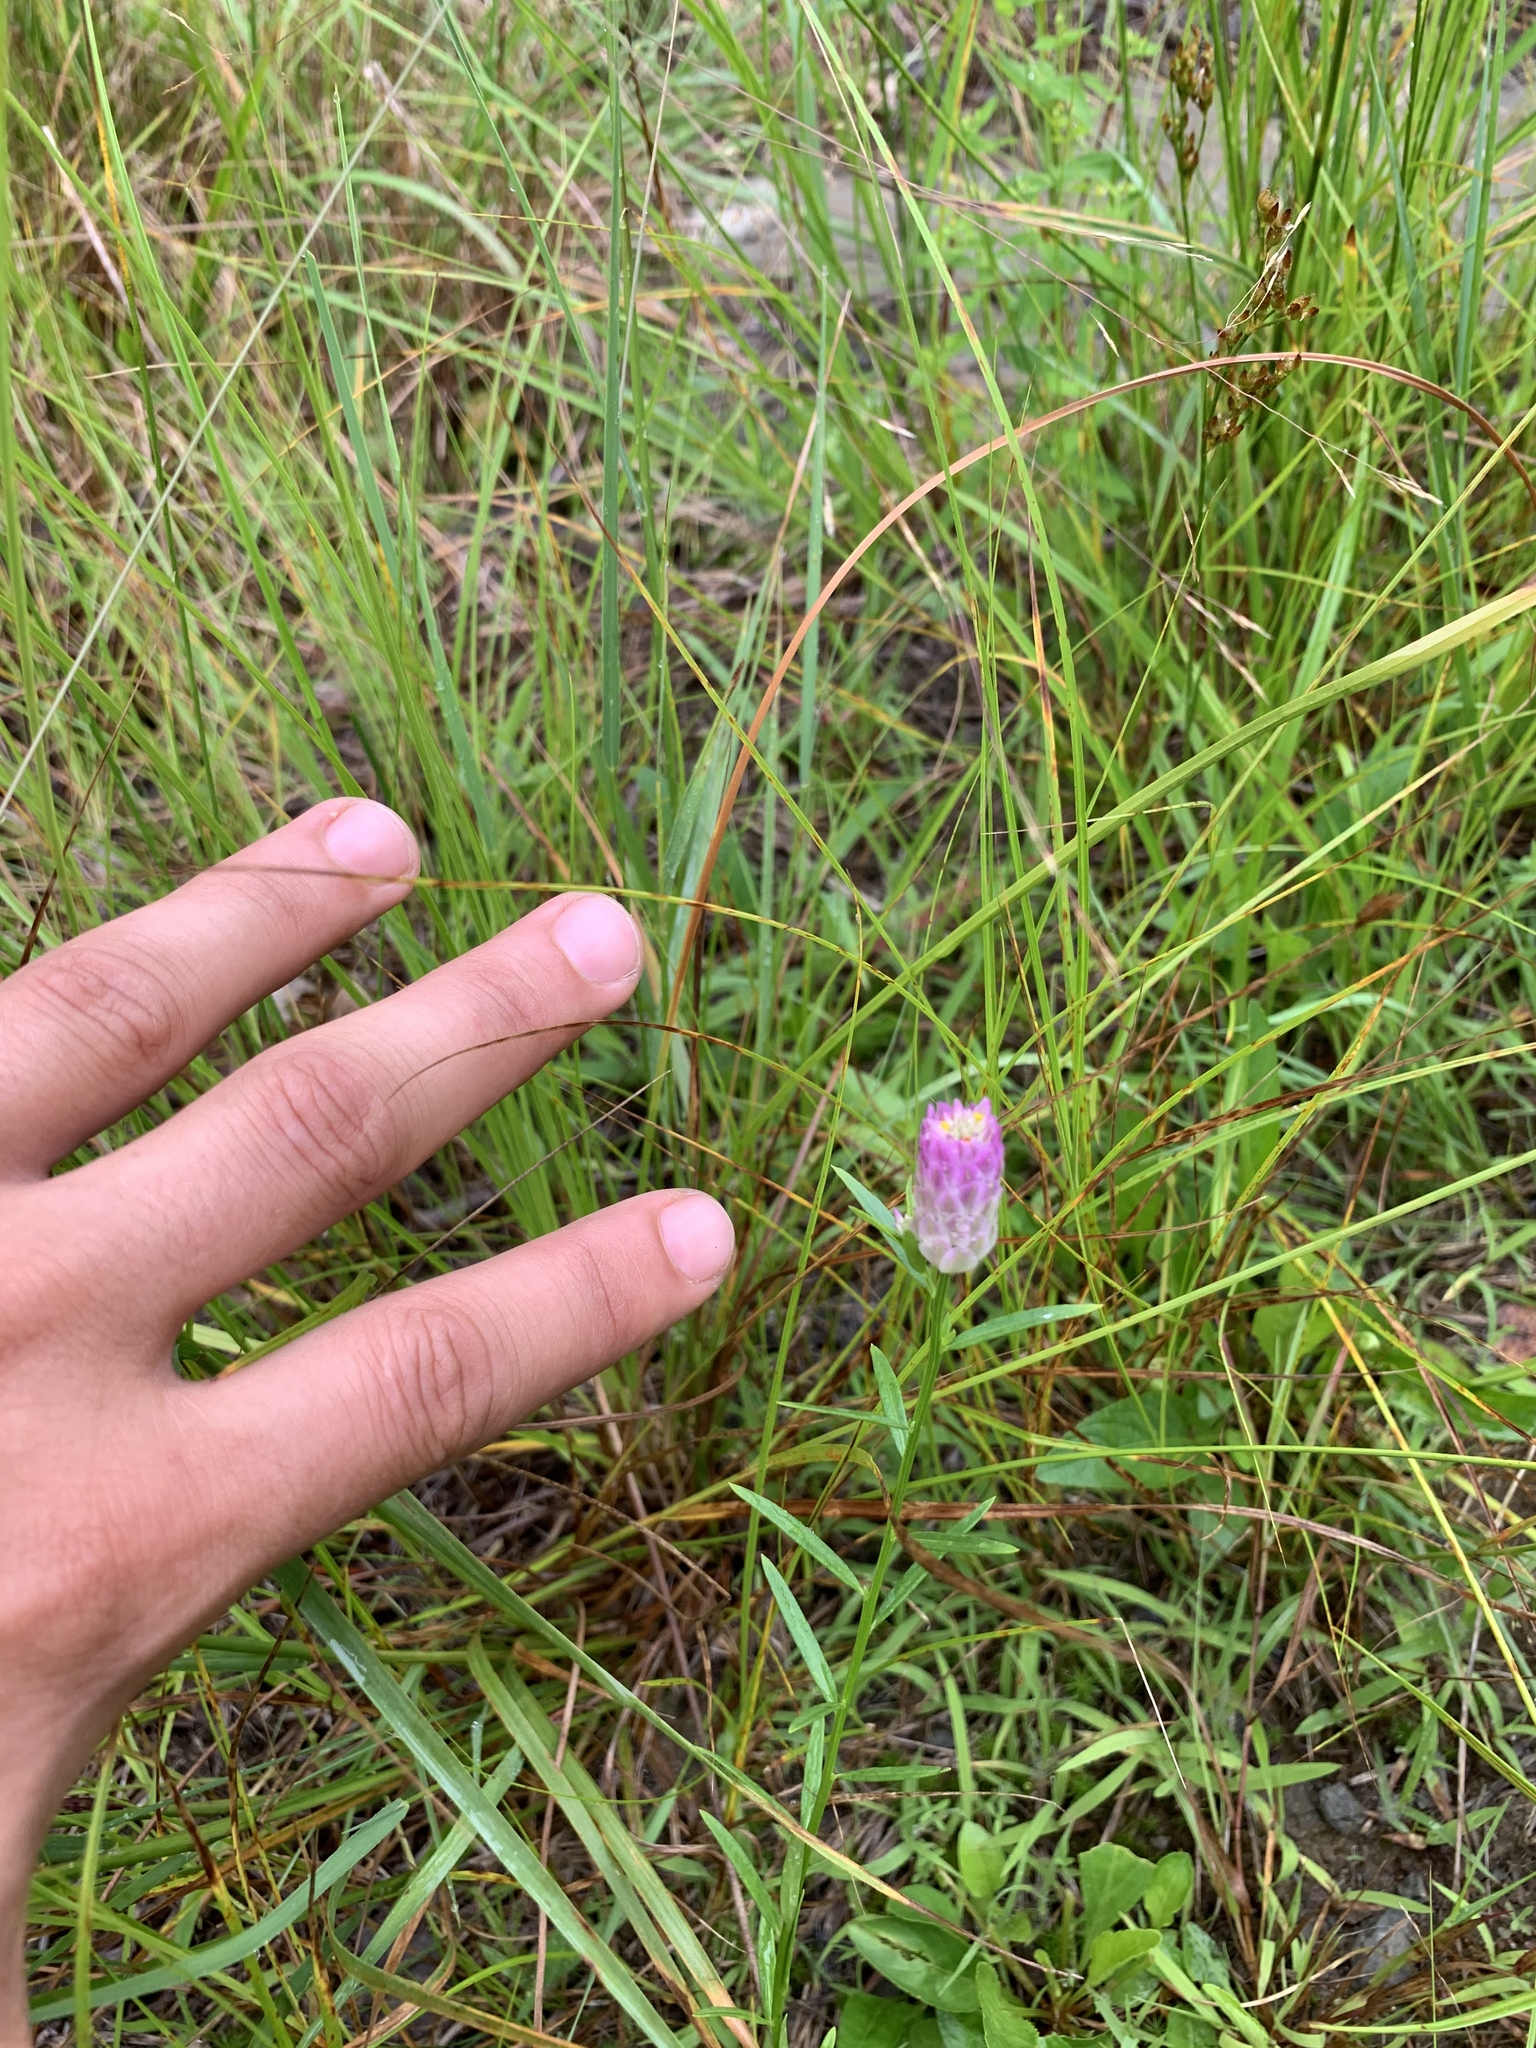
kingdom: Plantae
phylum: Tracheophyta
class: Magnoliopsida
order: Fabales
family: Polygalaceae
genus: Polygala
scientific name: Polygala sanguinea
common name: Blood milkwort
